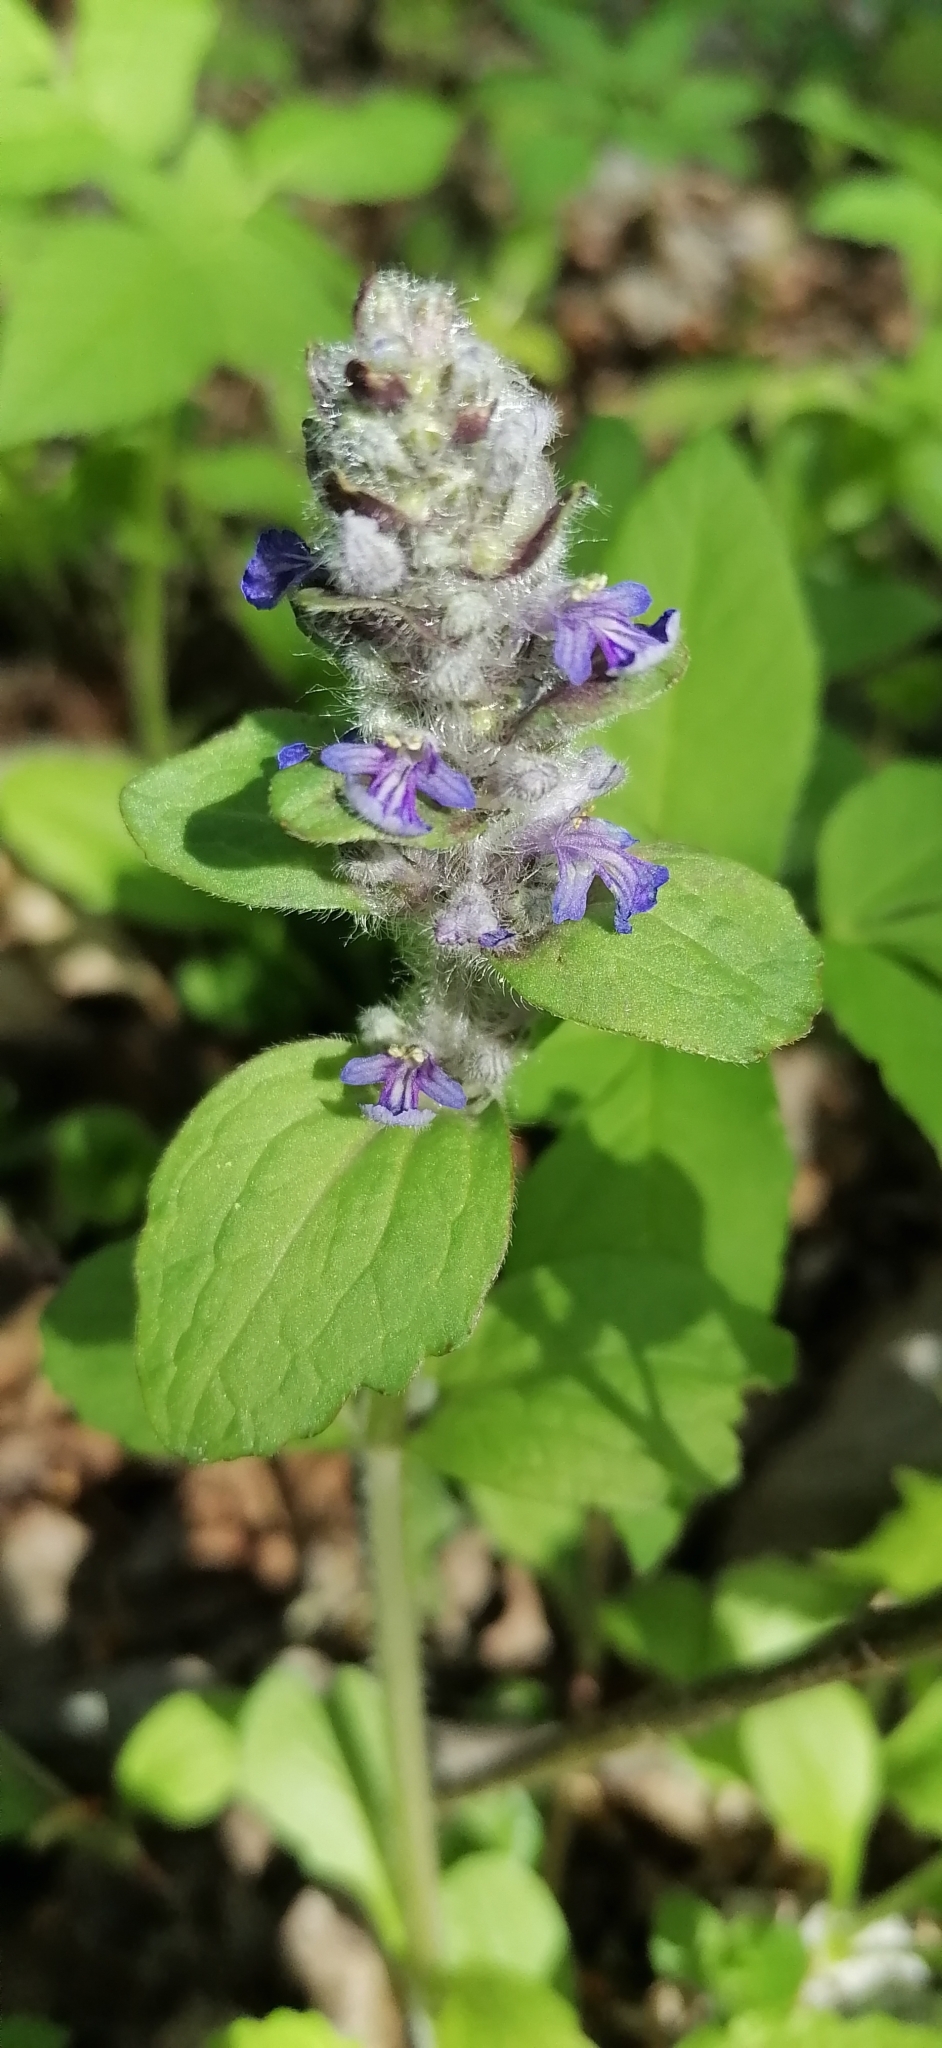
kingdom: Plantae
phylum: Tracheophyta
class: Magnoliopsida
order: Lamiales
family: Lamiaceae
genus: Ajuga
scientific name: Ajuga reptans
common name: Bugle
